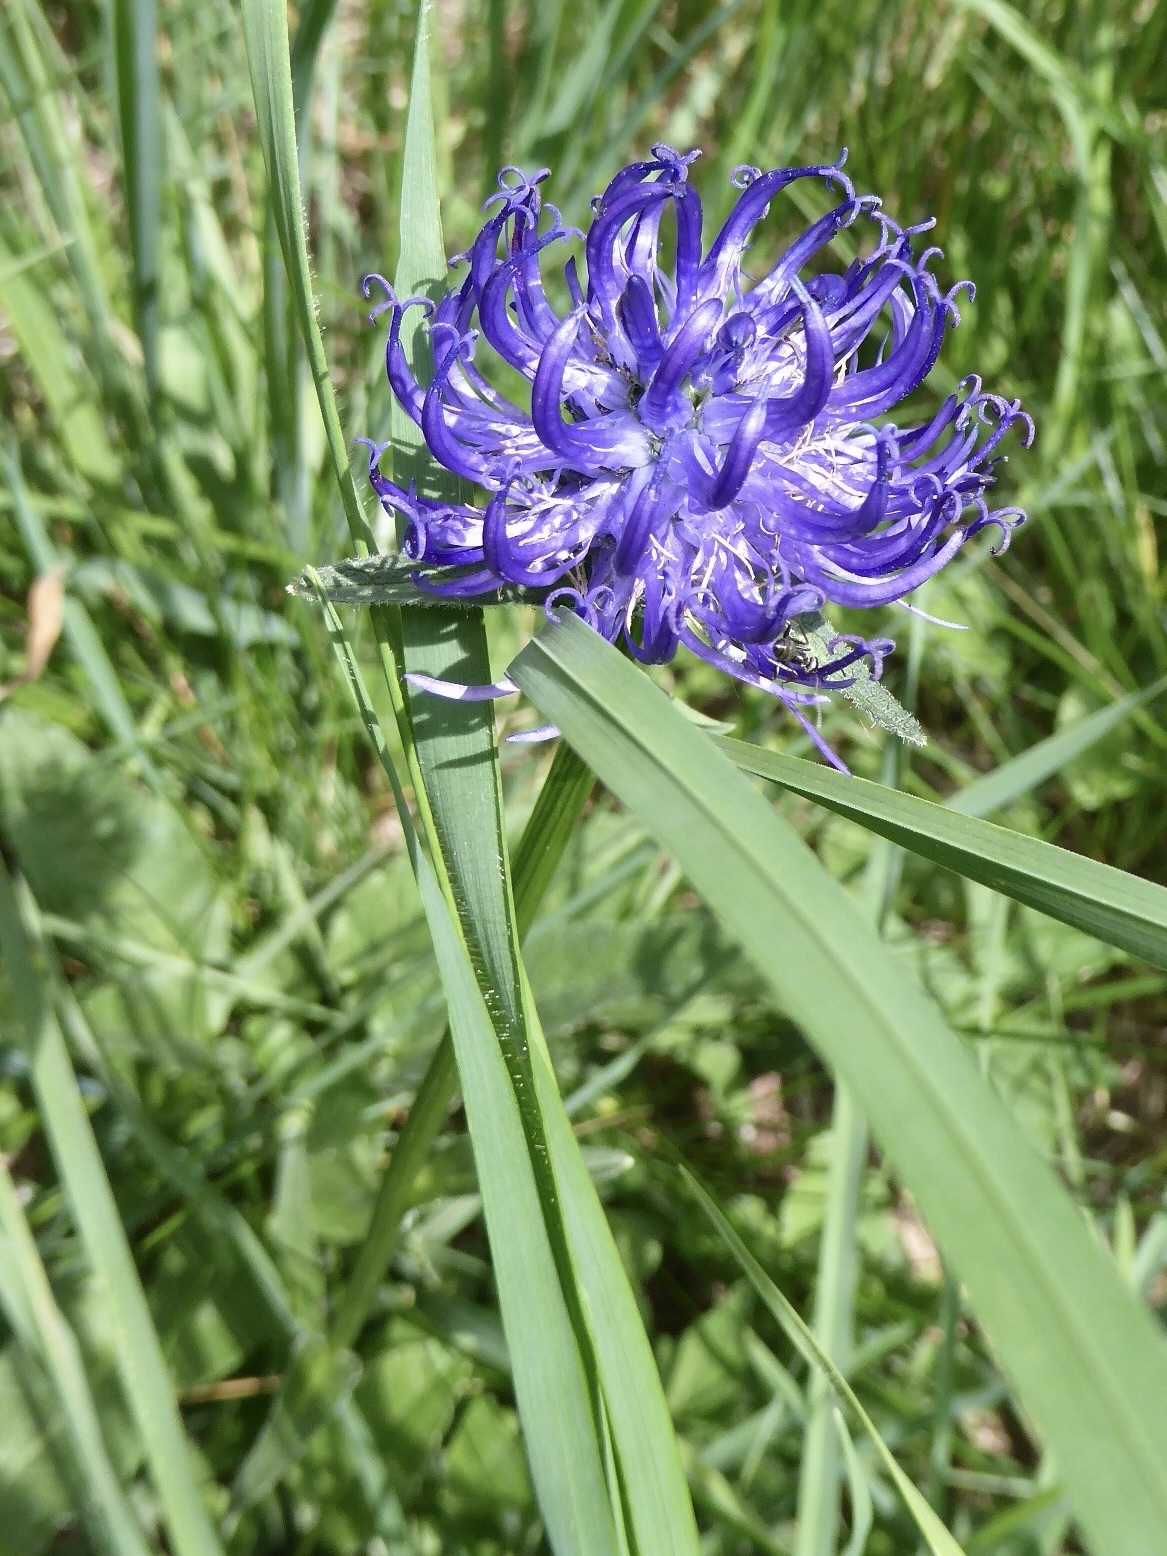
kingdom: Plantae
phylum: Tracheophyta
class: Magnoliopsida
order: Asterales
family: Campanulaceae
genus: Phyteuma
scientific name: Phyteuma orbiculare
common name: Round-headed rampion
